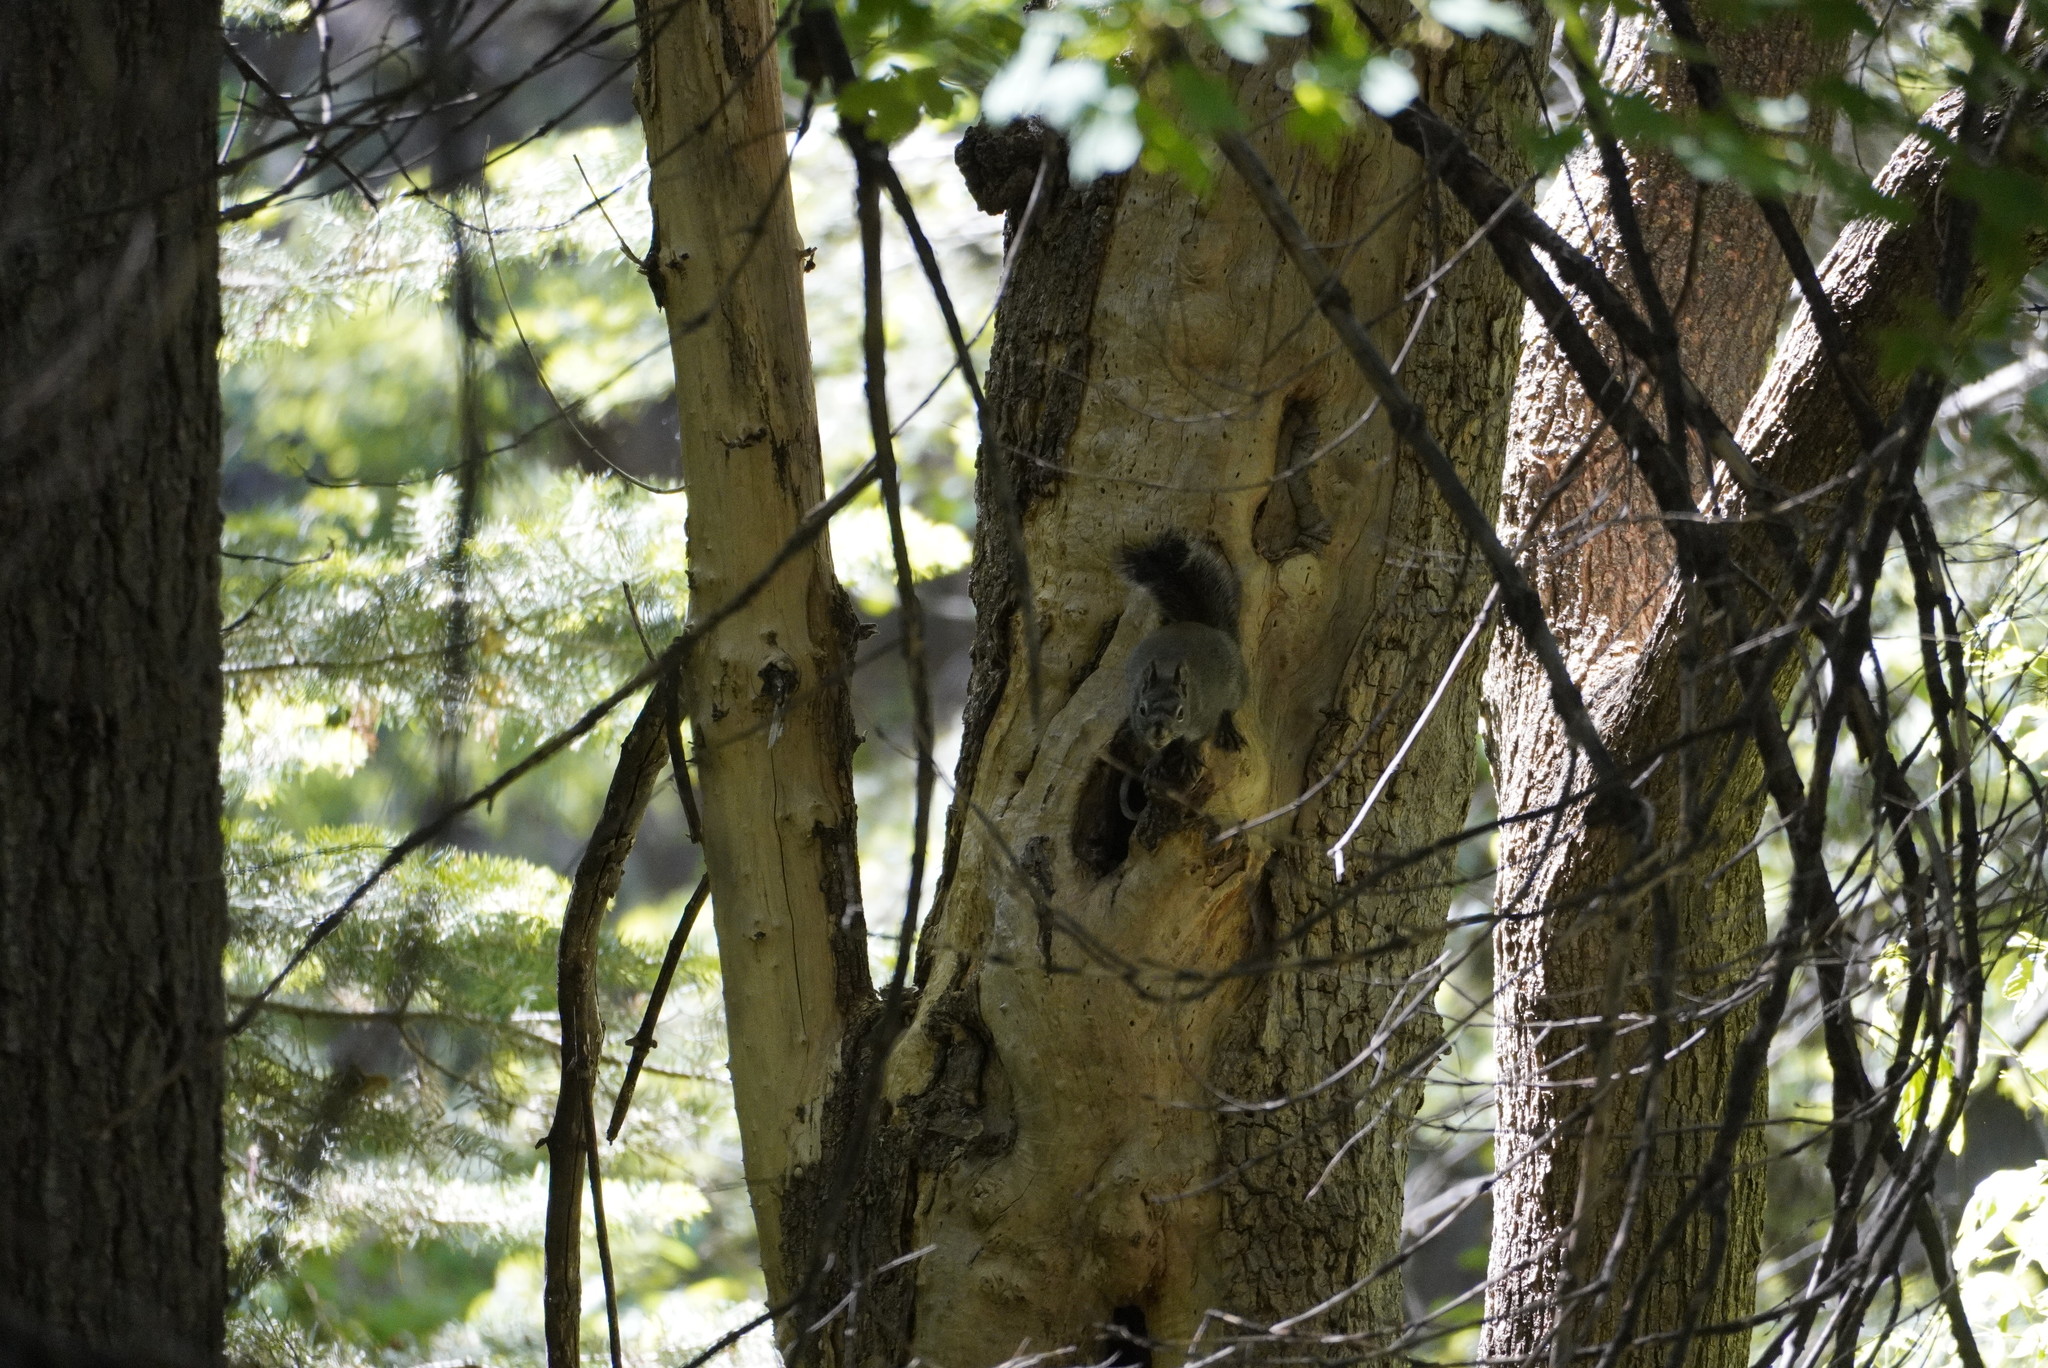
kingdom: Animalia
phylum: Chordata
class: Mammalia
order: Rodentia
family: Sciuridae
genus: Tamiasciurus
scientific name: Tamiasciurus hudsonicus
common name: Red squirrel
